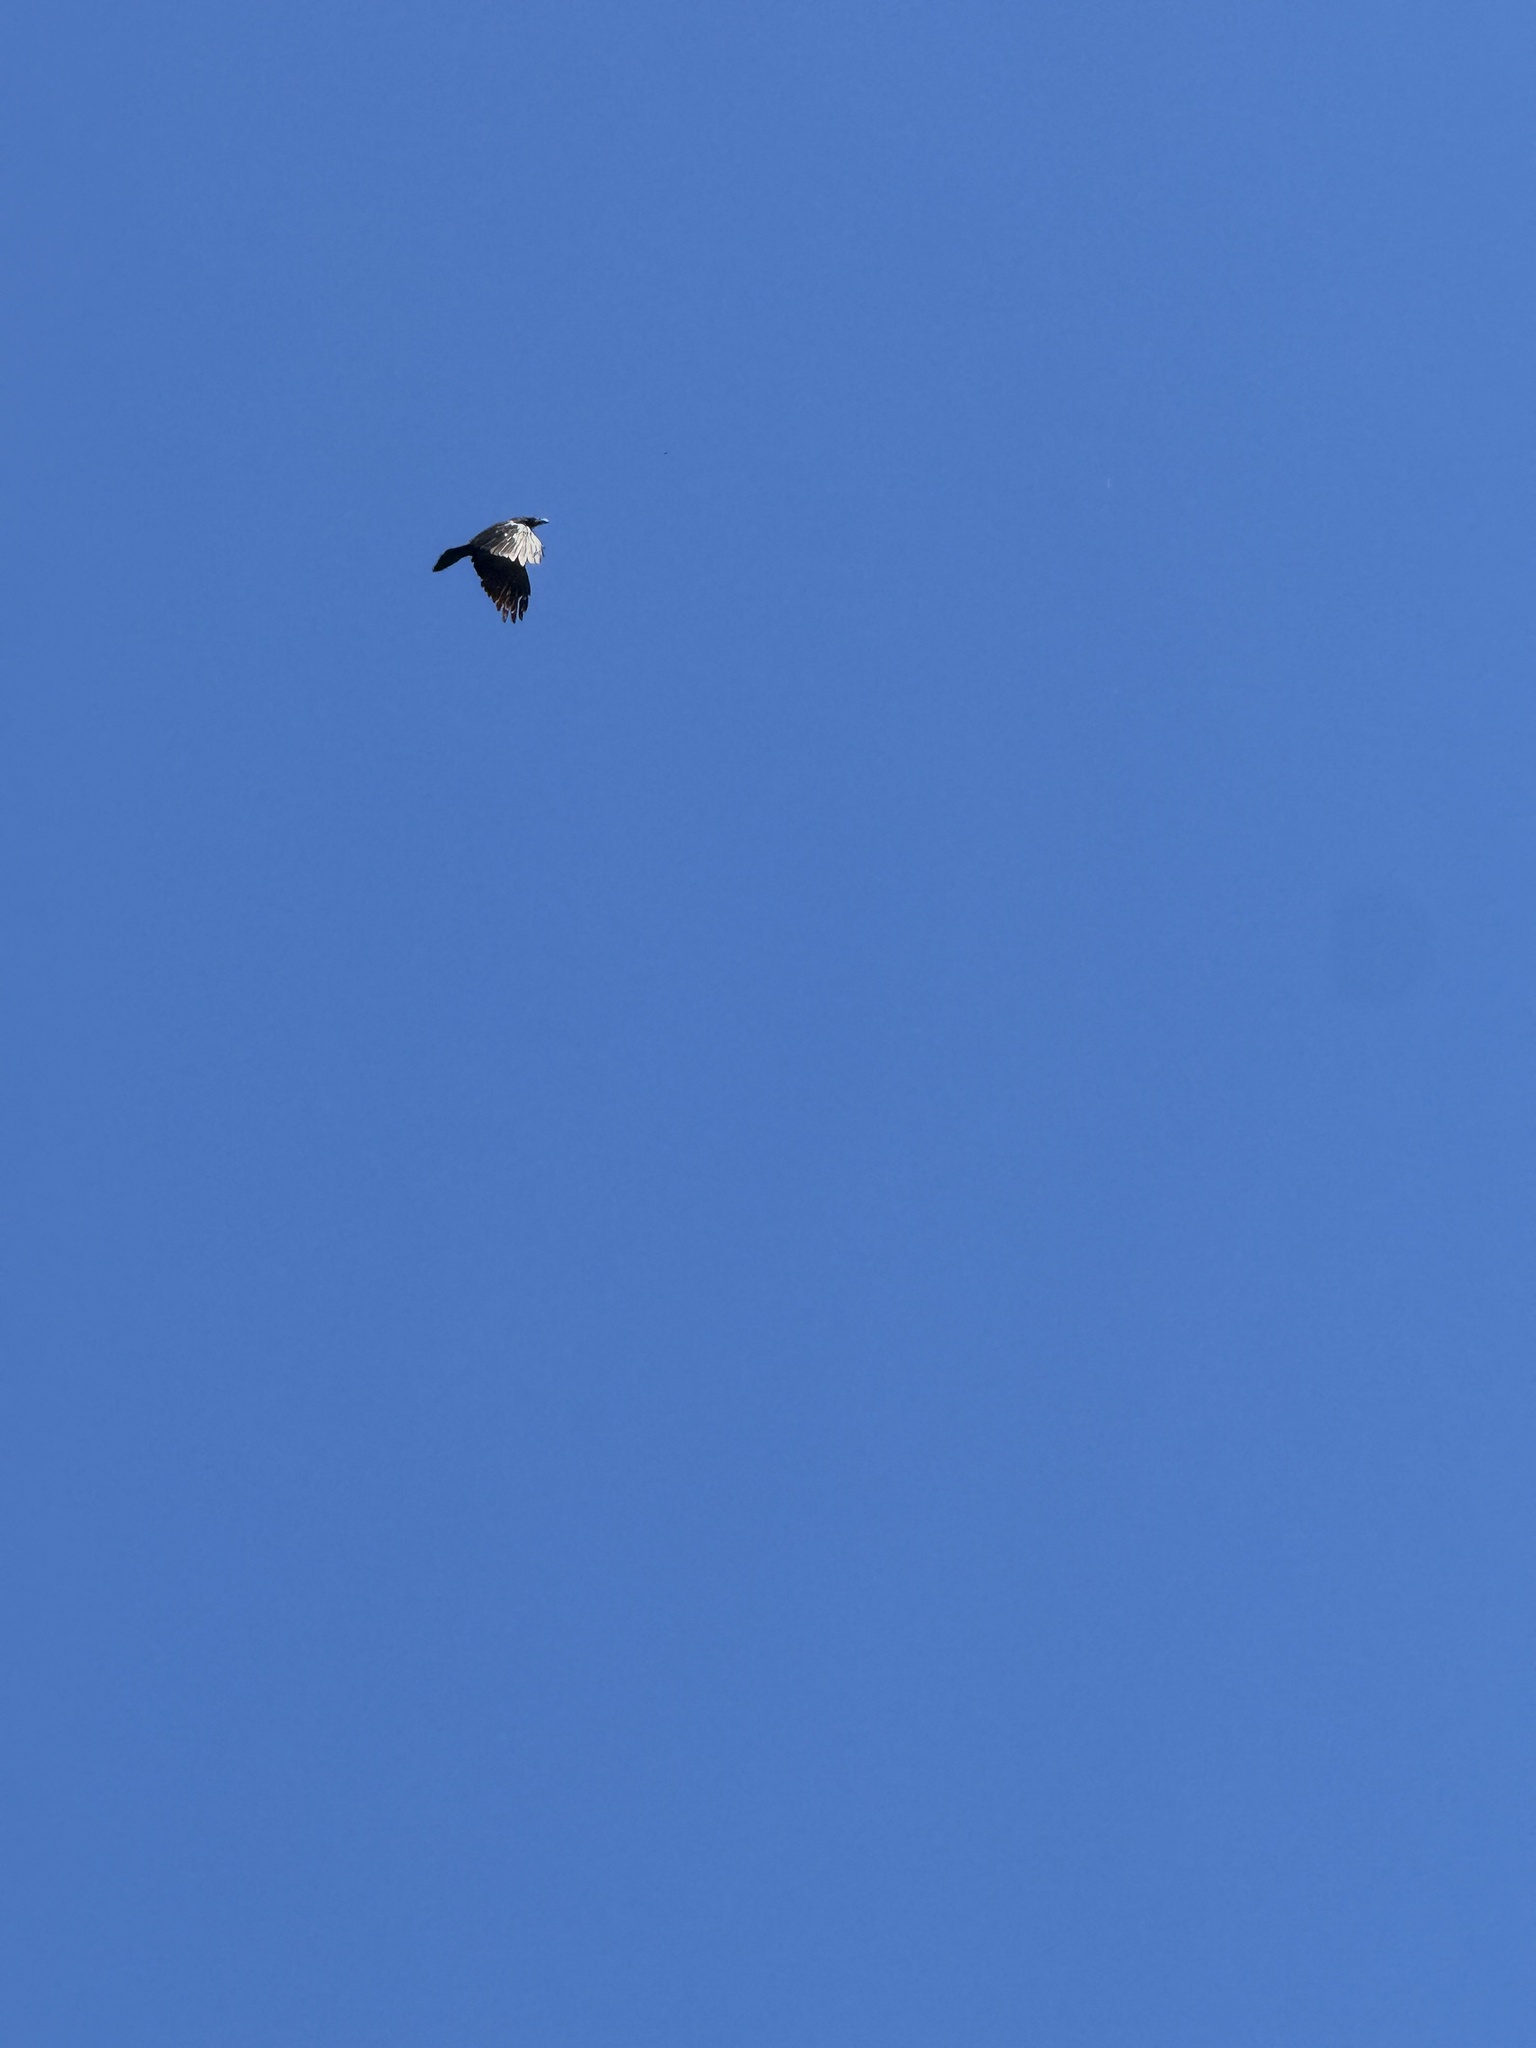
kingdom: Animalia
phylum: Chordata
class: Aves
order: Passeriformes
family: Corvidae
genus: Corvus
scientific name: Corvus corax
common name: Common raven
